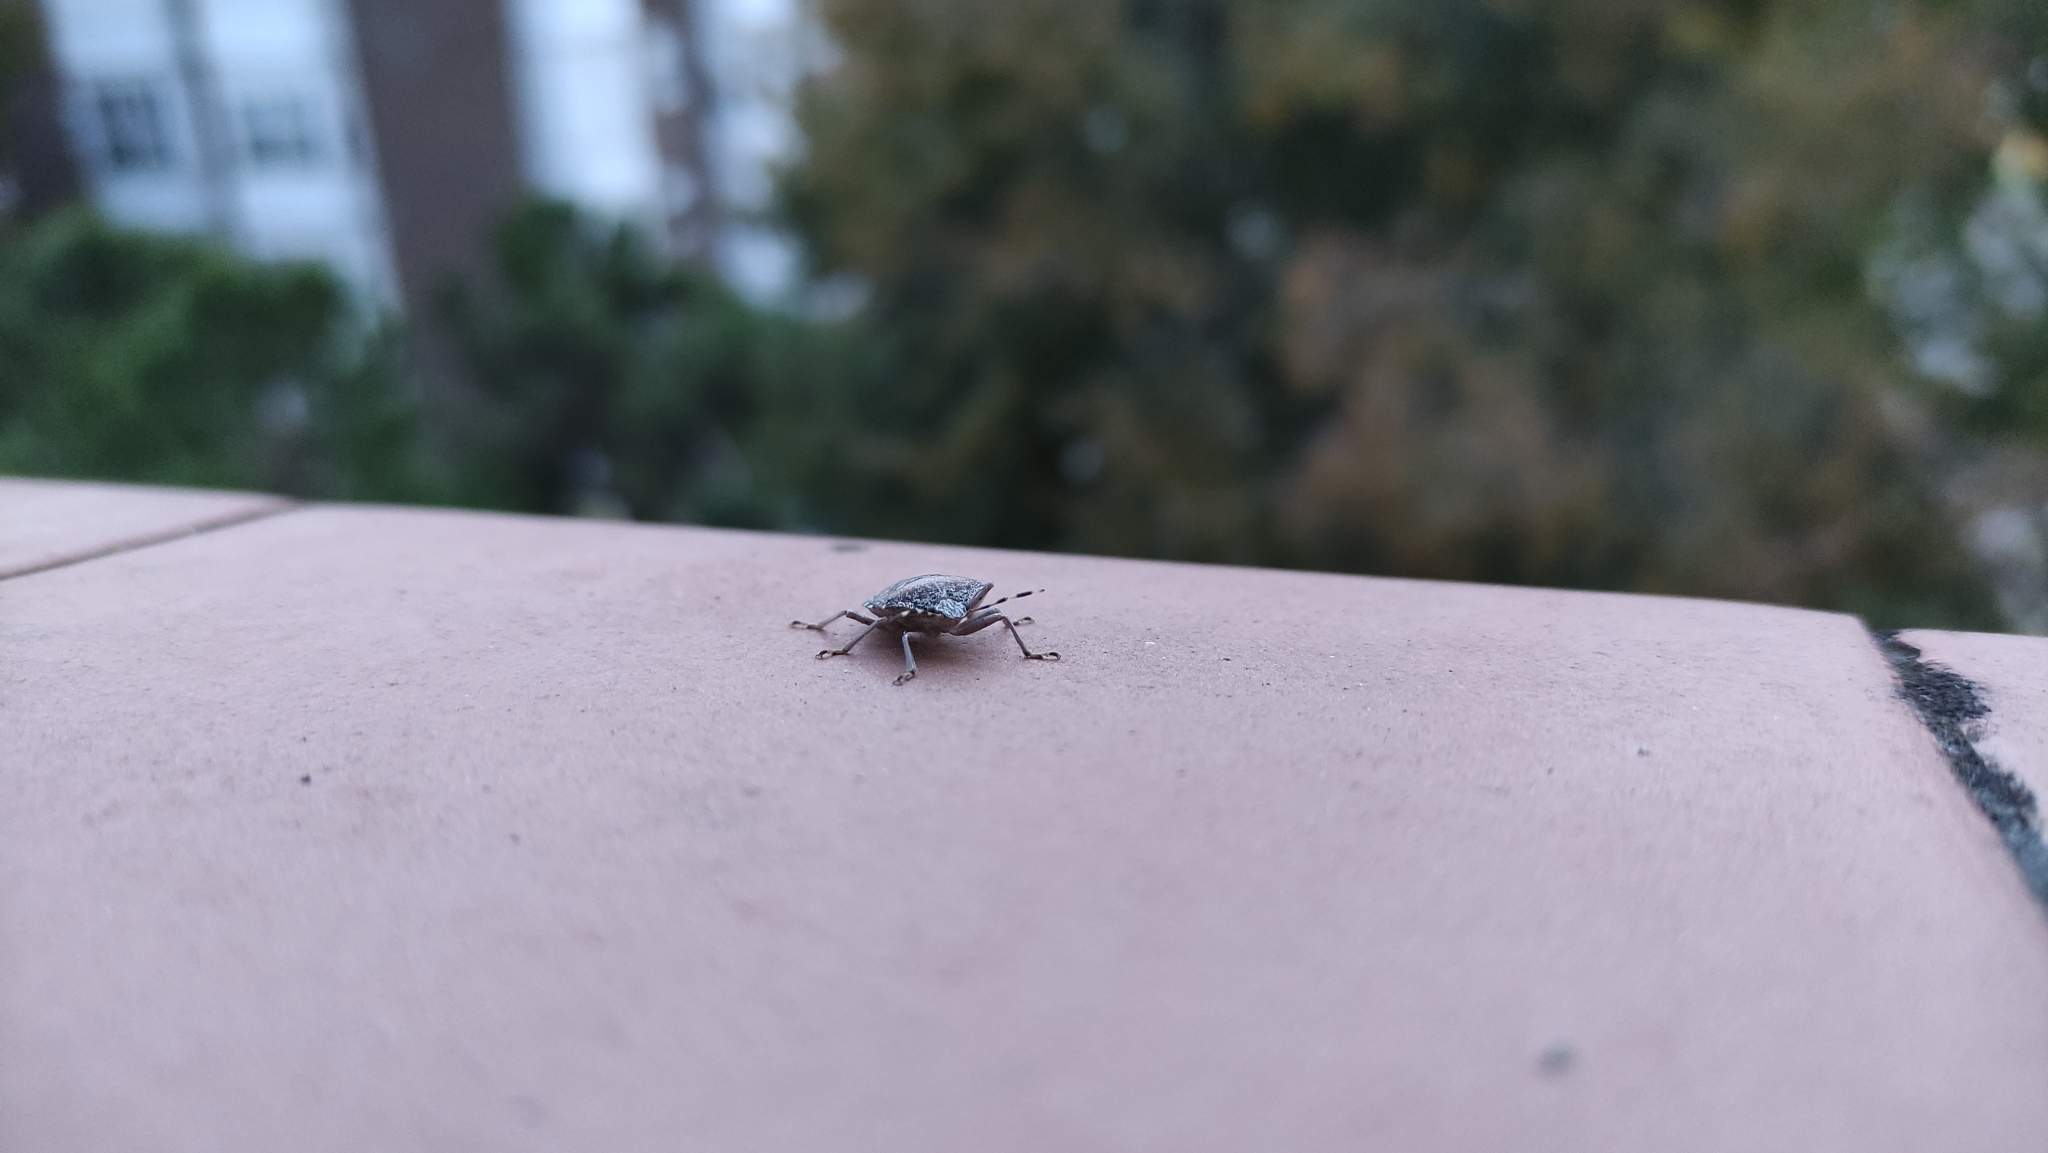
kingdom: Animalia
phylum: Arthropoda
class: Insecta
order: Hemiptera
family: Pentatomidae
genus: Rhaphigaster
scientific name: Rhaphigaster nebulosa
